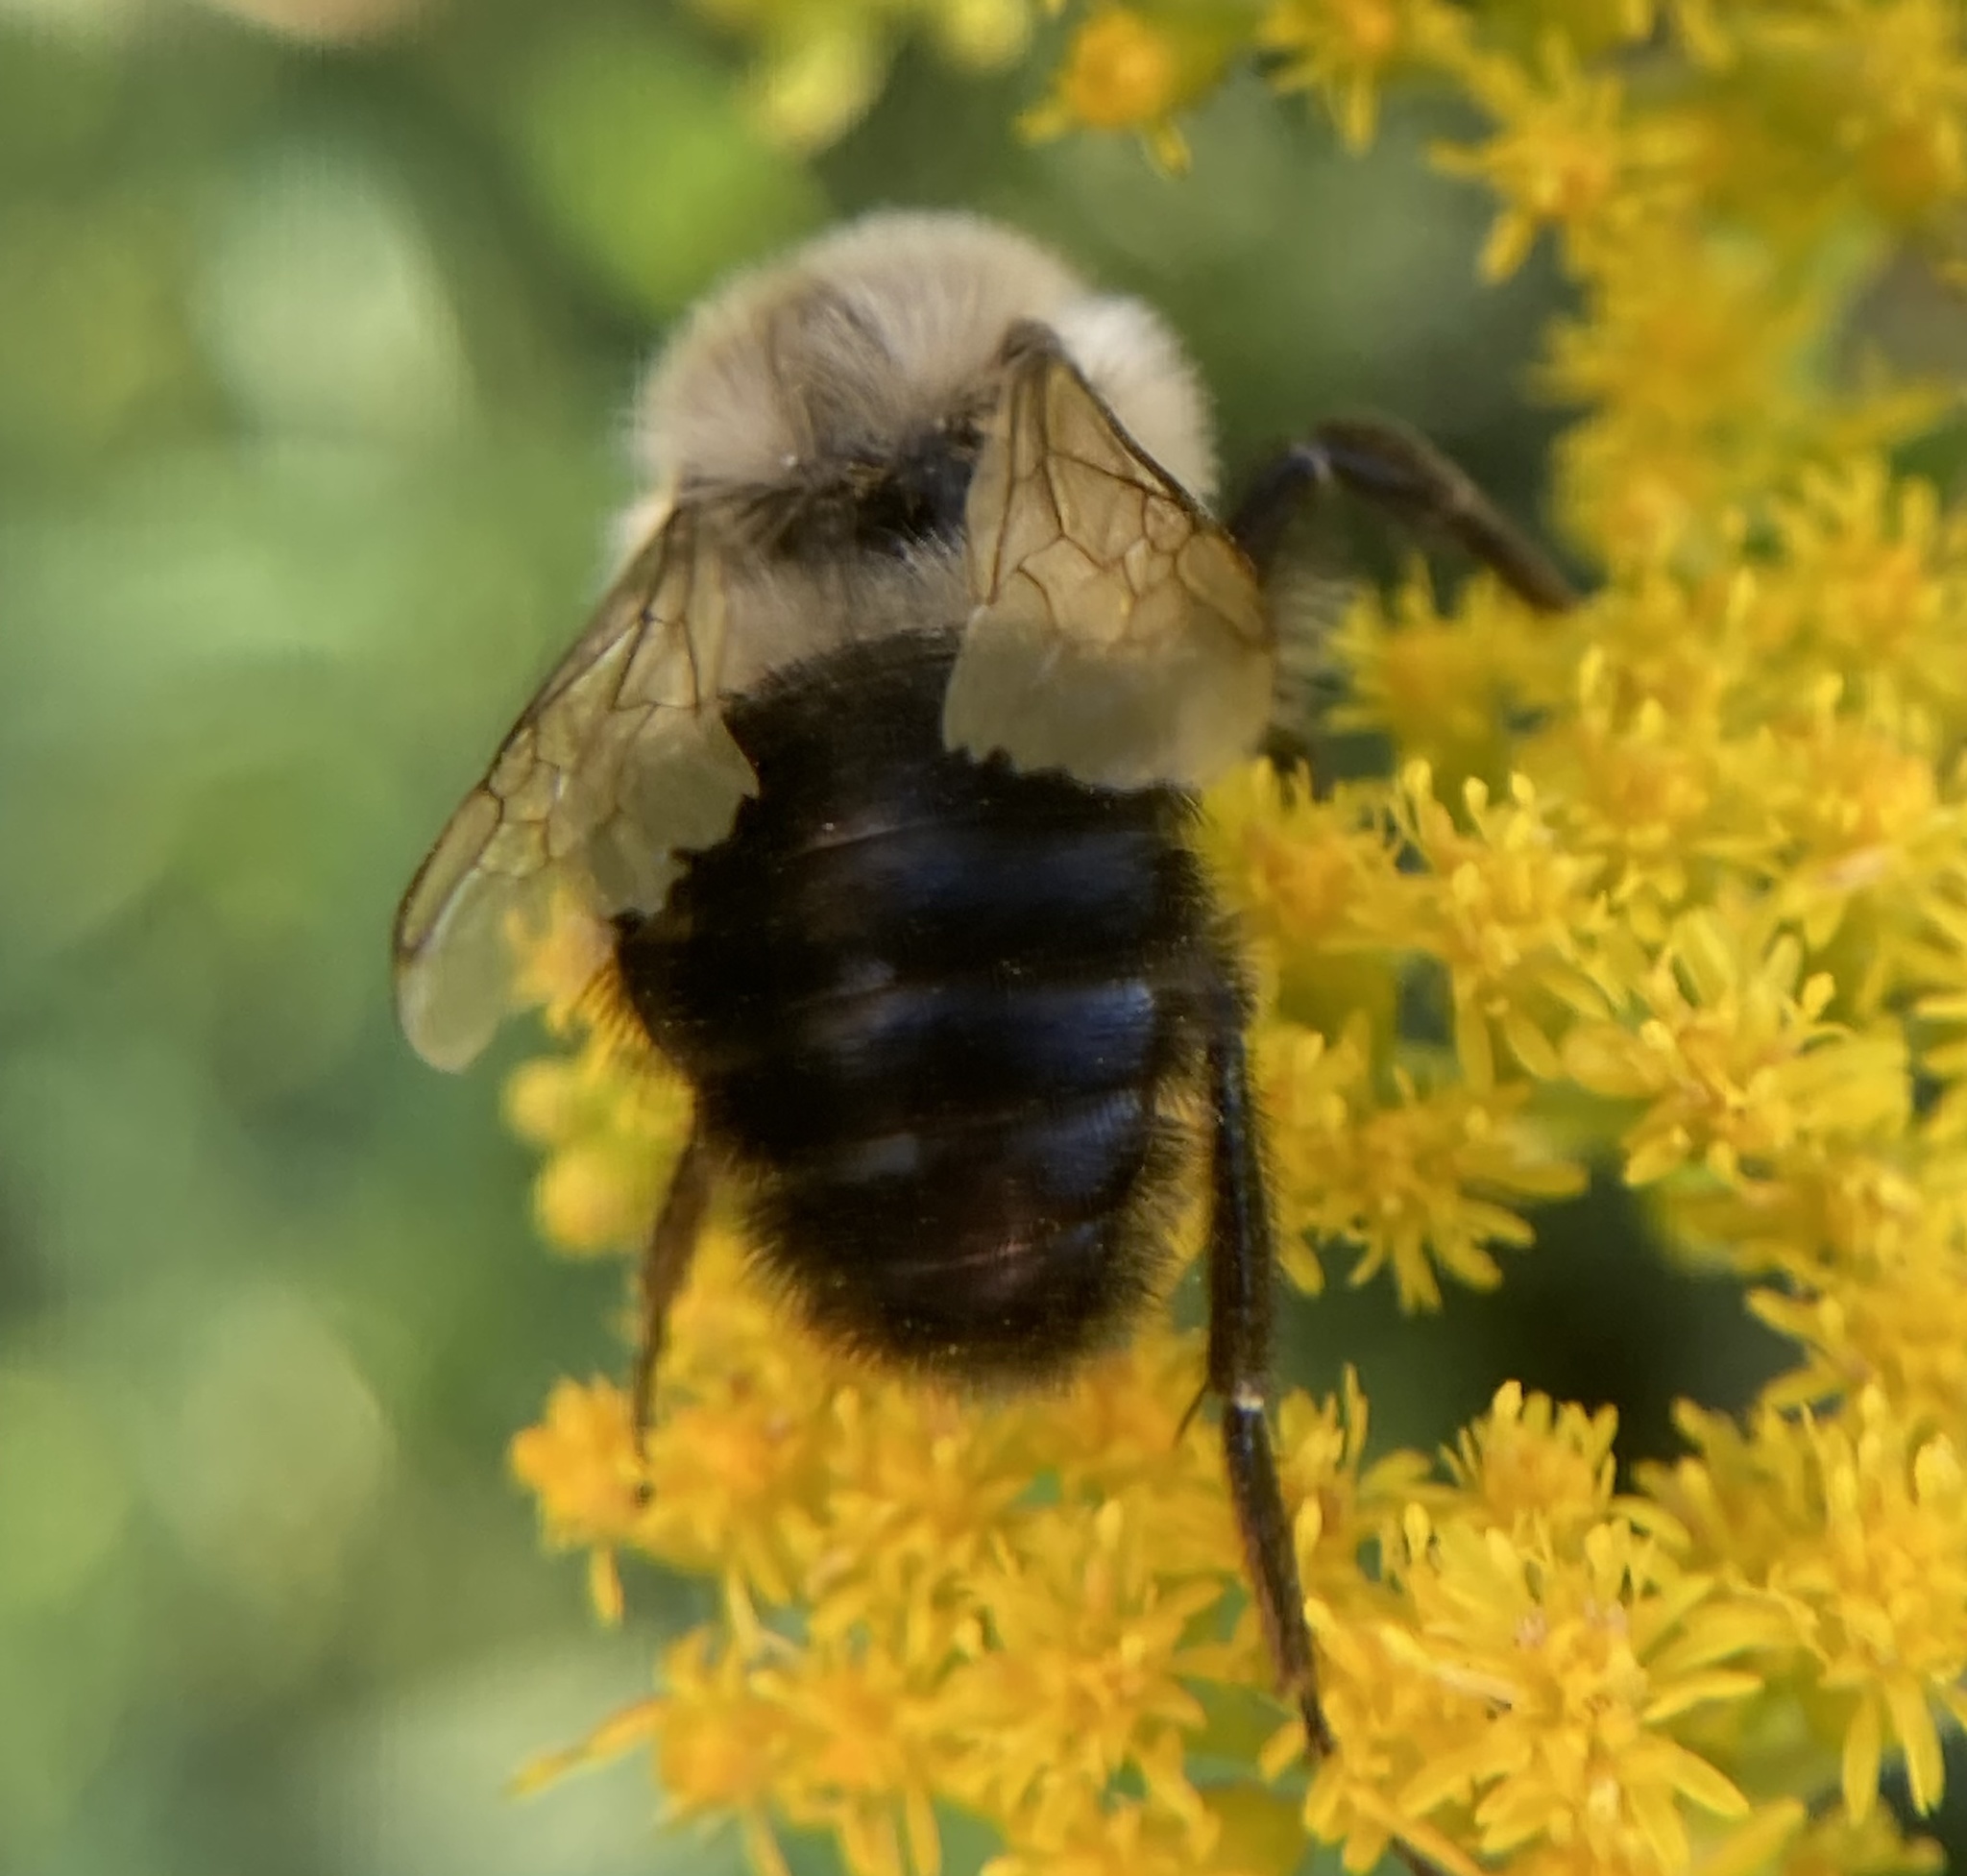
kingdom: Animalia
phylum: Arthropoda
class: Insecta
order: Hymenoptera
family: Apidae
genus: Bombus
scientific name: Bombus impatiens
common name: Common eastern bumble bee
